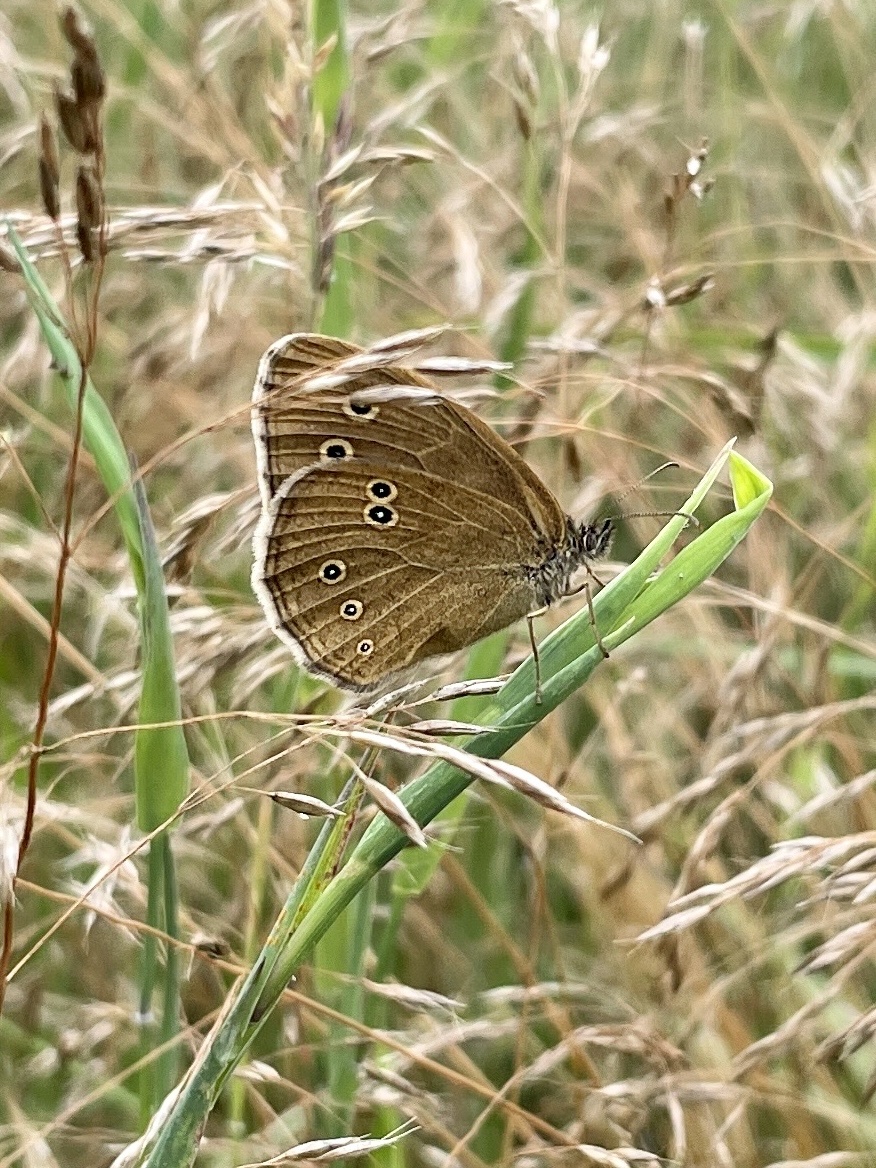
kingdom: Animalia
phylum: Arthropoda
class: Insecta
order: Lepidoptera
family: Nymphalidae
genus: Aphantopus
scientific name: Aphantopus hyperantus
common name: Ringlet
